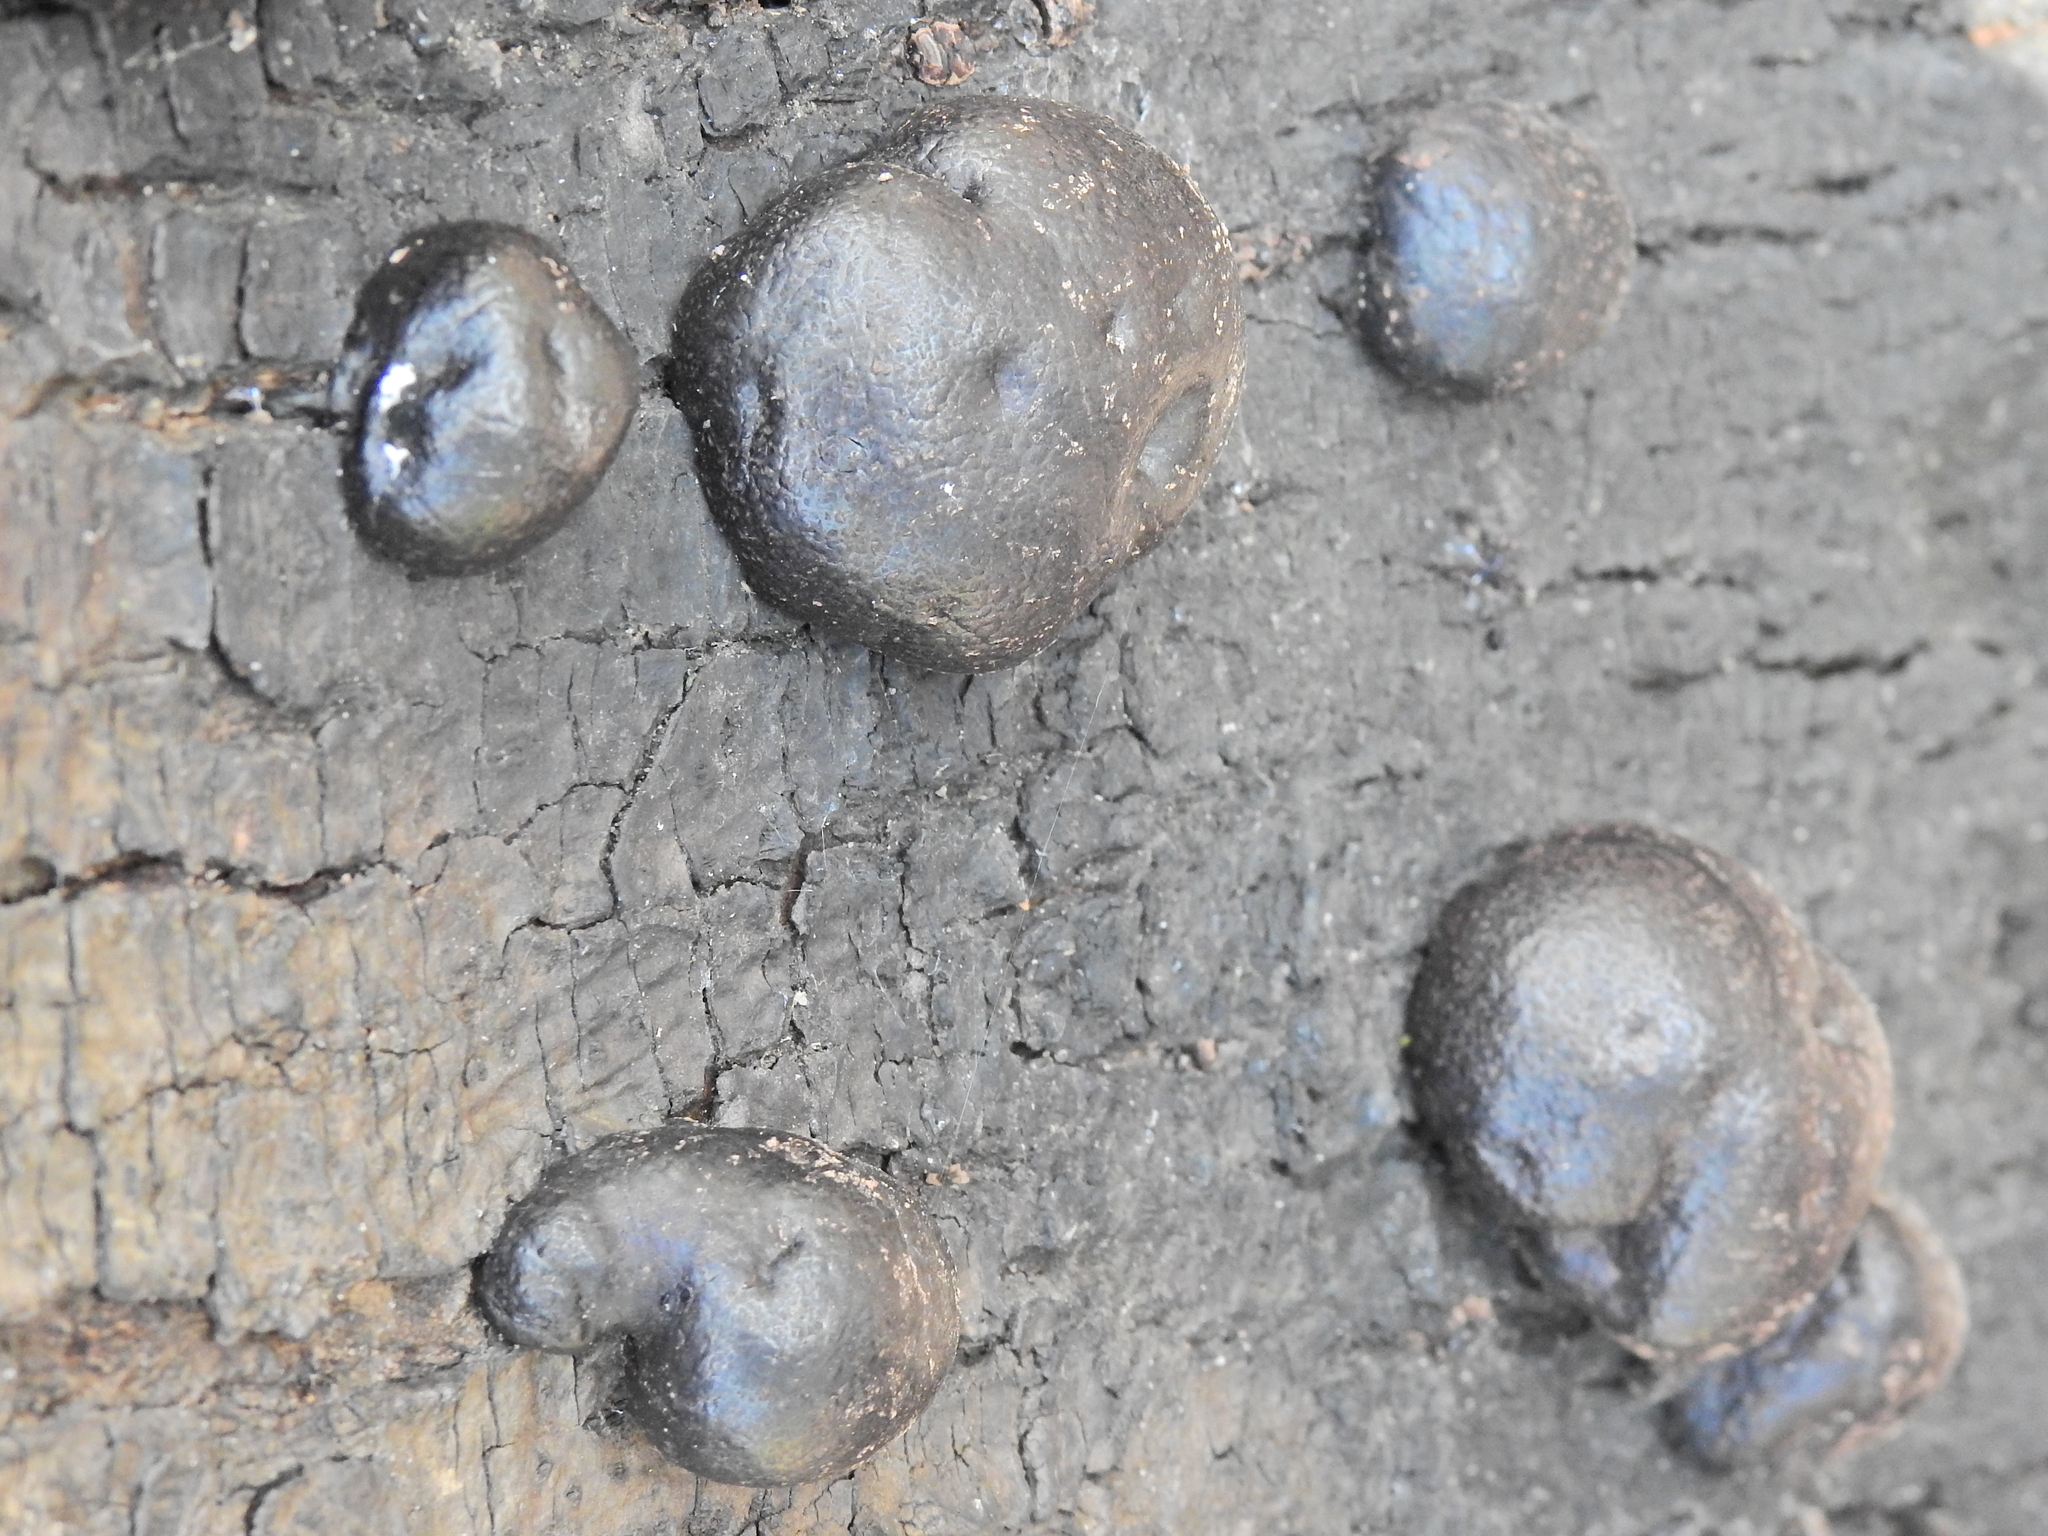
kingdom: Fungi
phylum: Ascomycota
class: Sordariomycetes
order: Xylariales
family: Hypoxylaceae
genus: Daldinia
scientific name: Daldinia concentrica
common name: Cramp balls
